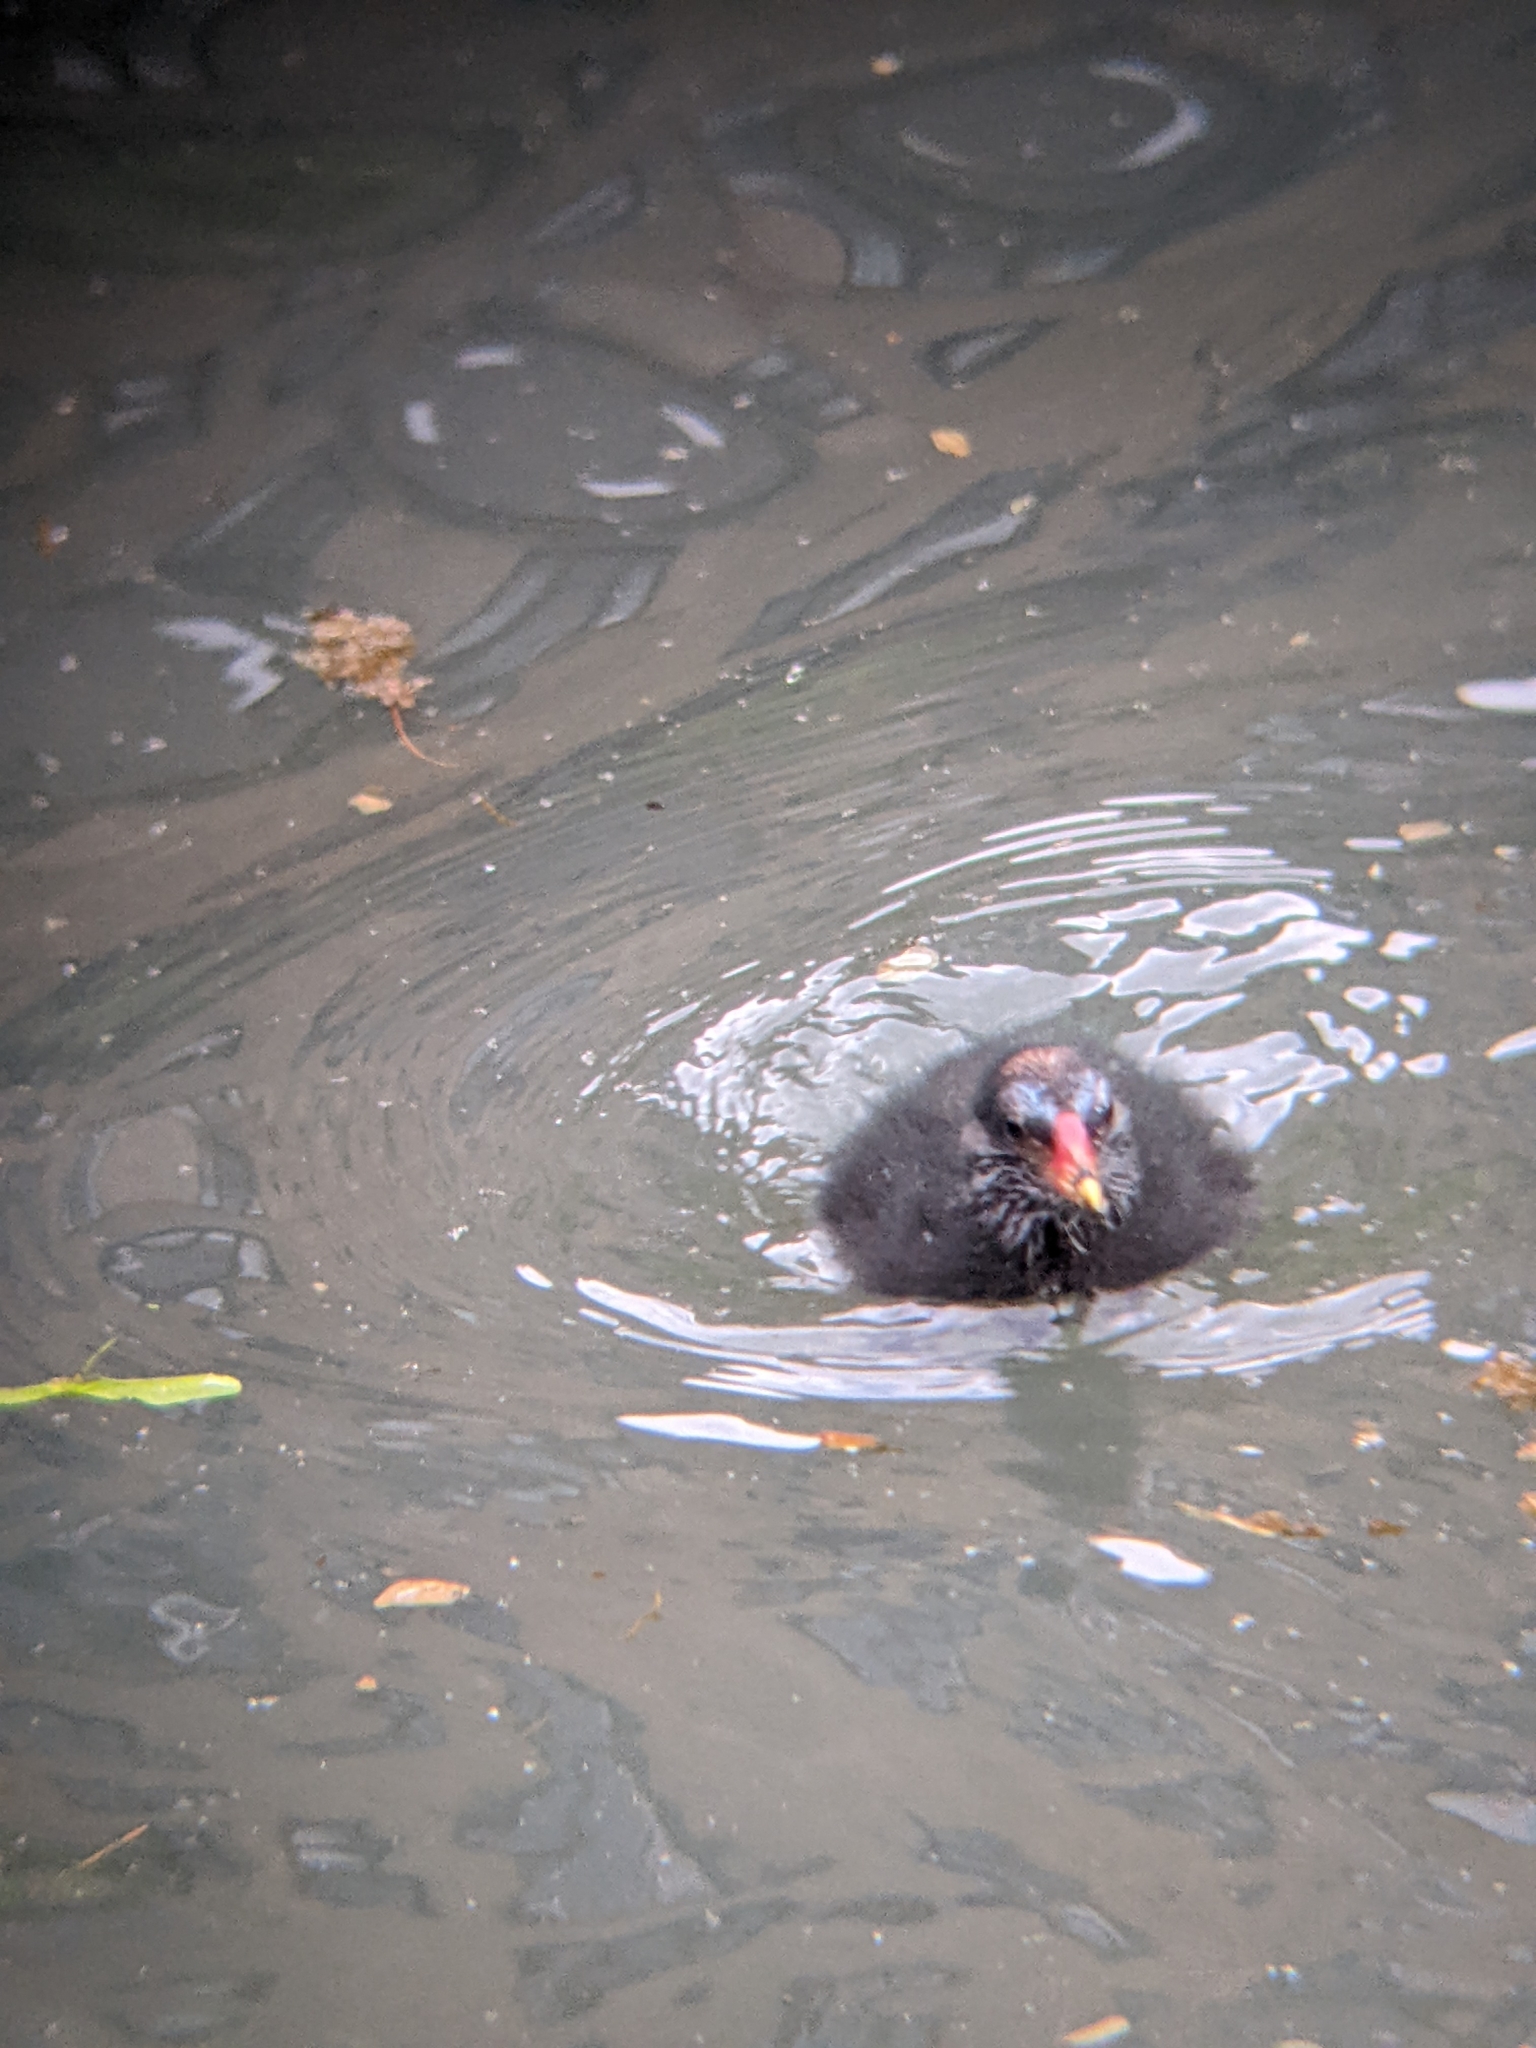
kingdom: Animalia
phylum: Chordata
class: Aves
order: Gruiformes
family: Rallidae
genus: Gallinula
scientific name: Gallinula chloropus
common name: Common moorhen
